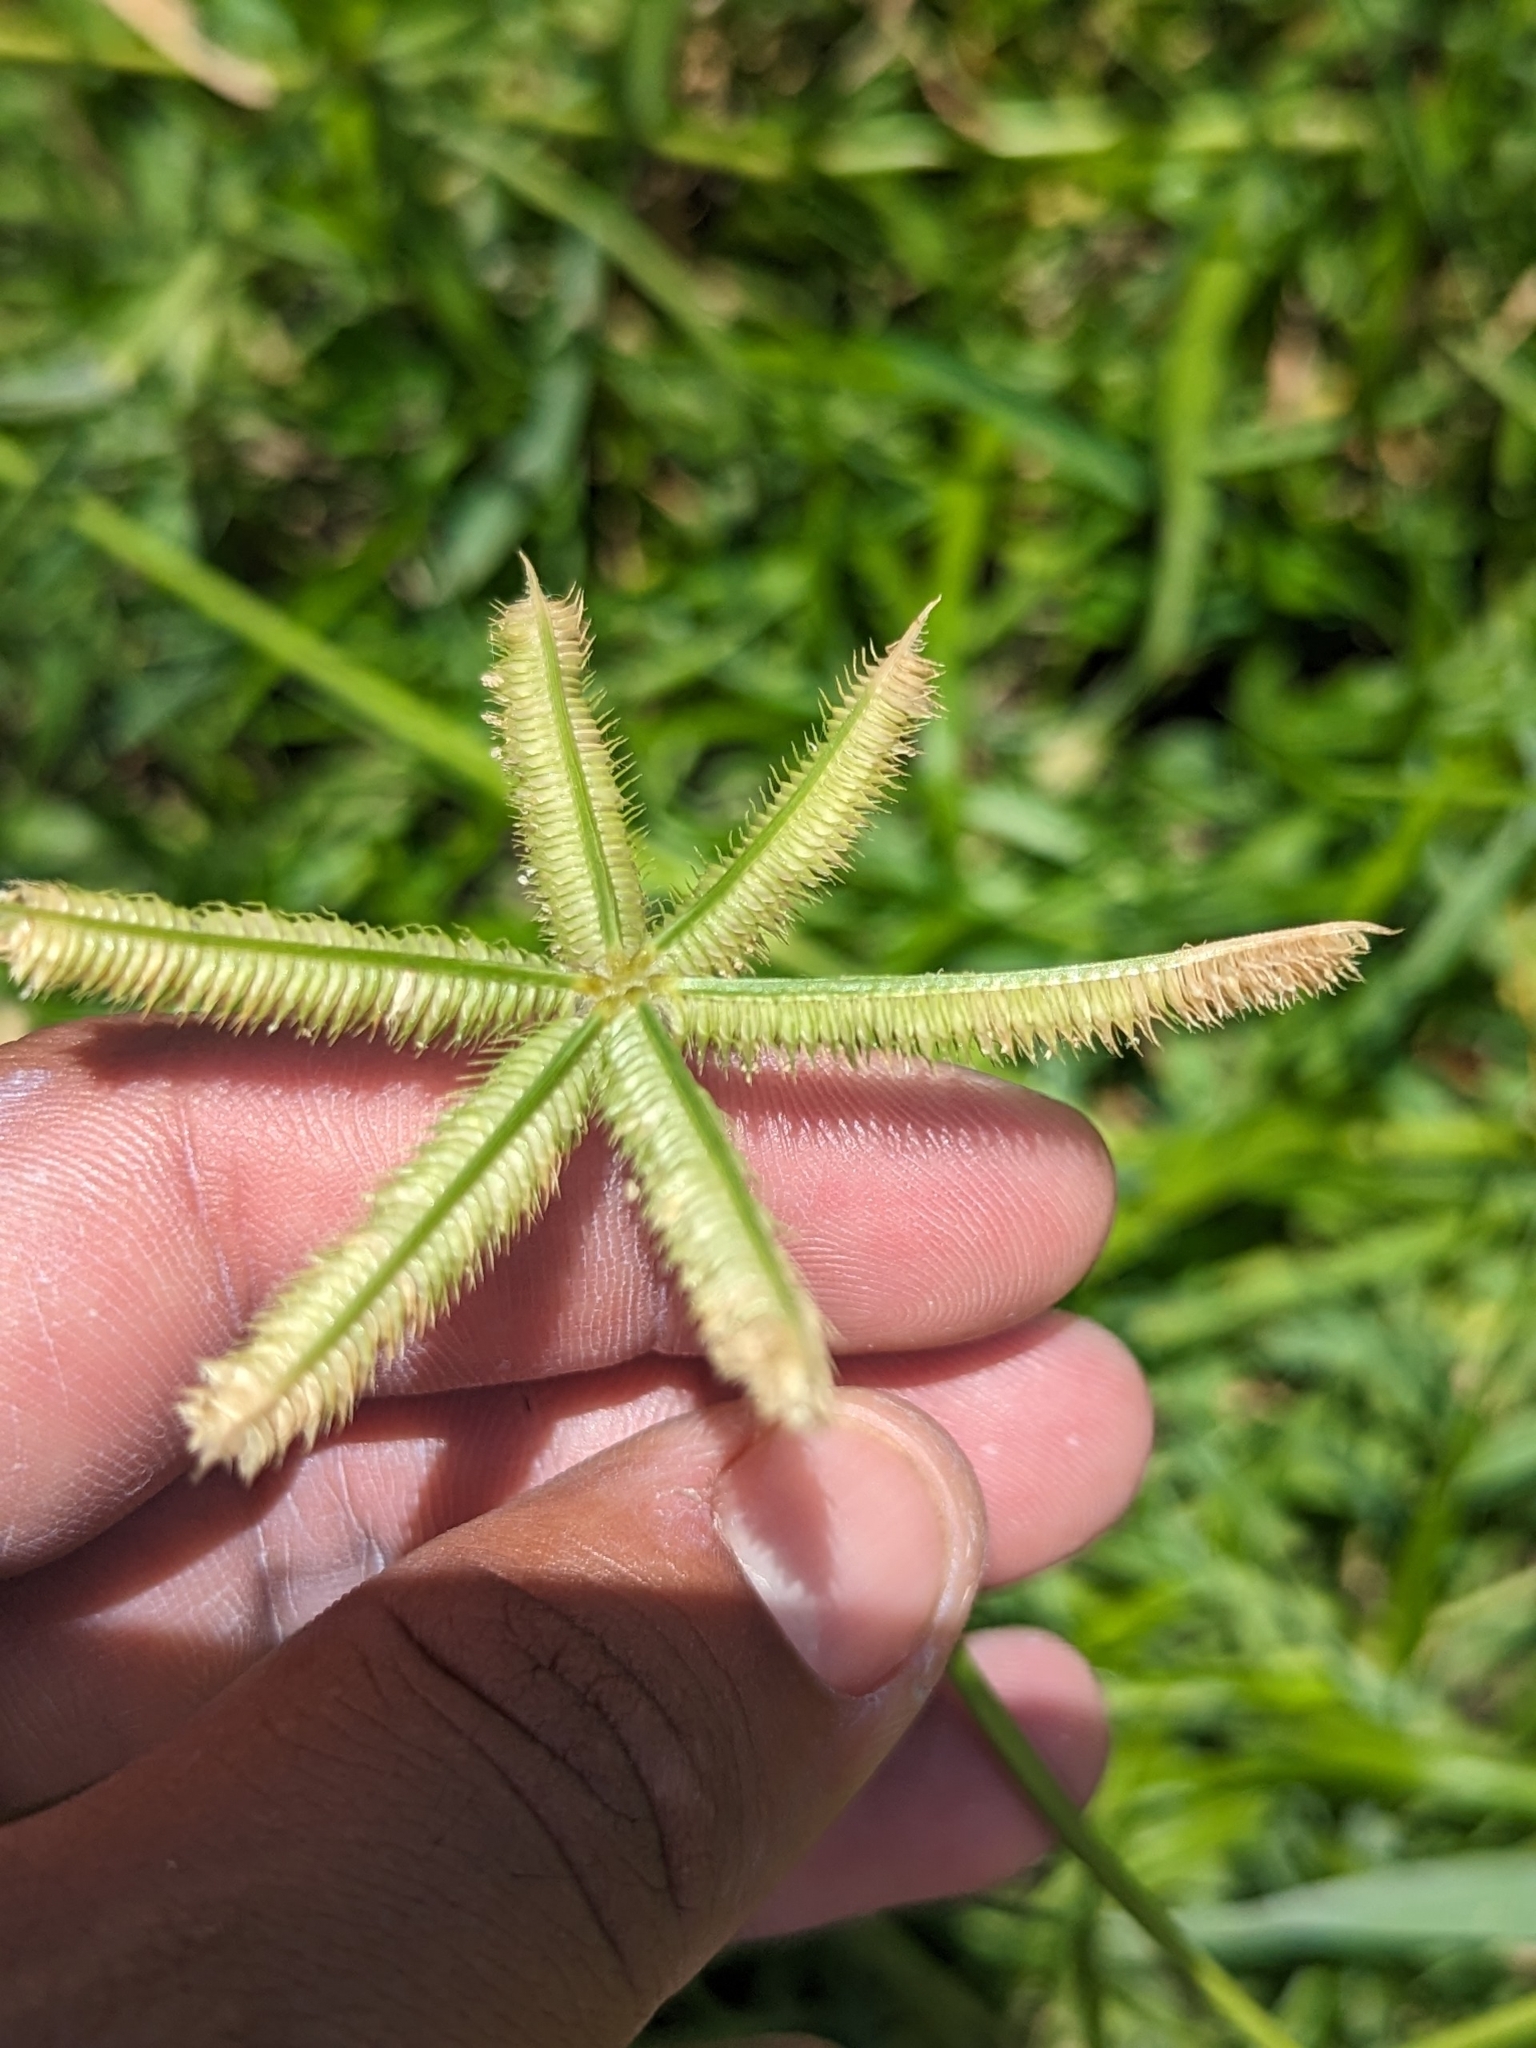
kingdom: Plantae
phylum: Tracheophyta
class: Liliopsida
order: Poales
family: Poaceae
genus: Dactyloctenium
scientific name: Dactyloctenium aegyptium
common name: Egyptian grass
